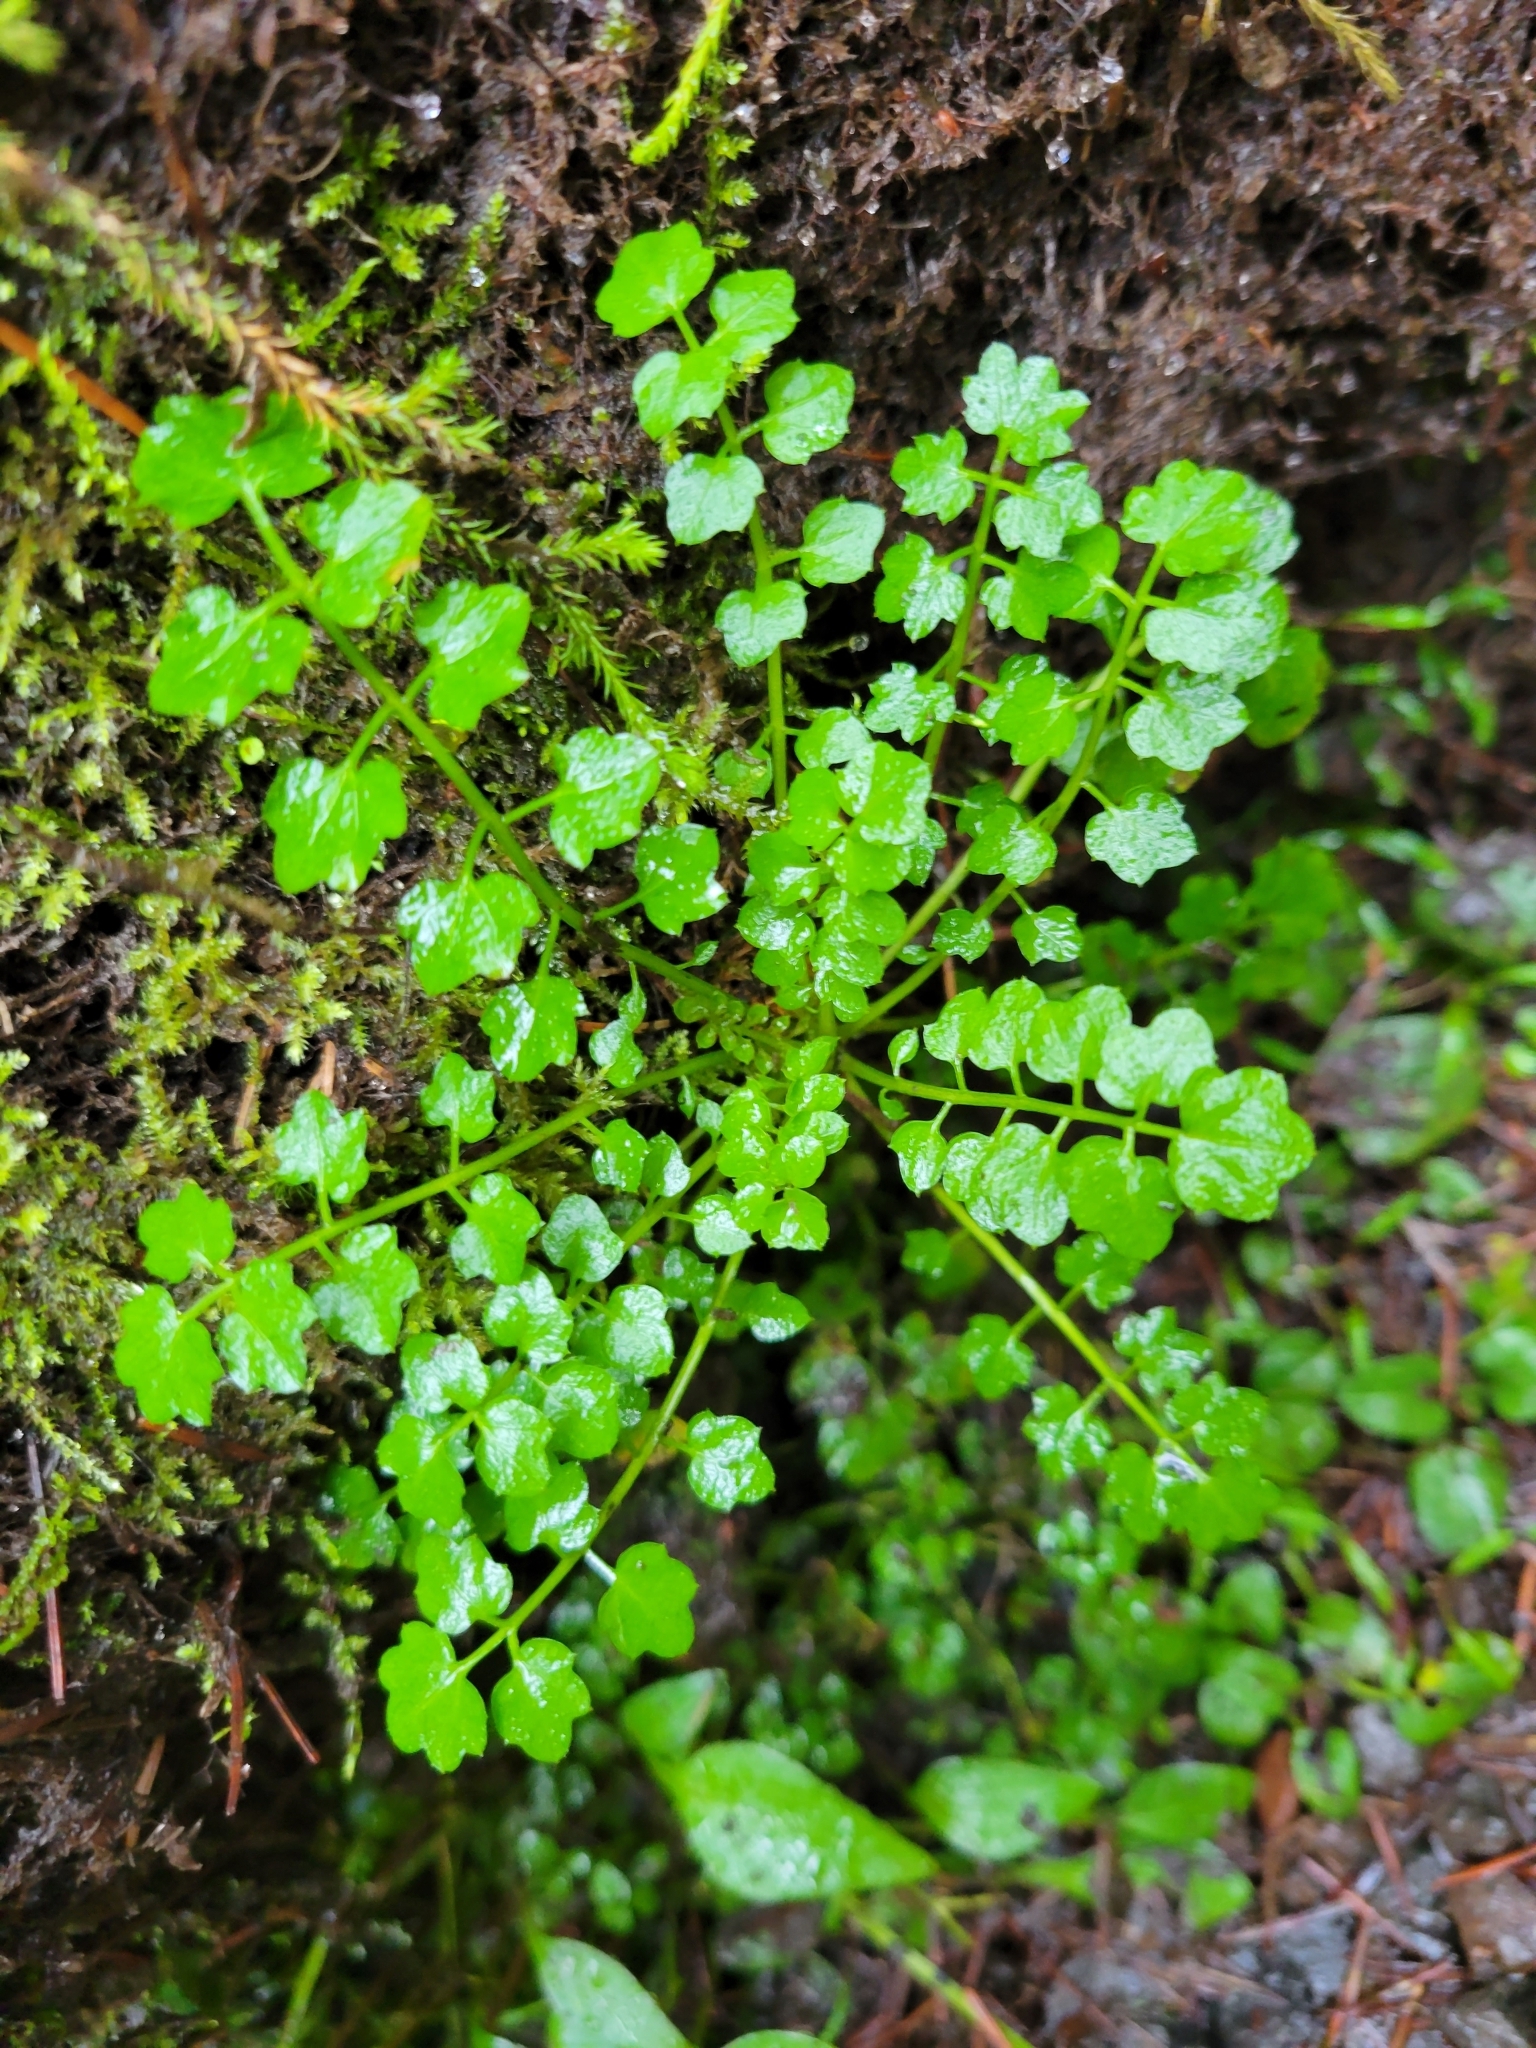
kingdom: Plantae
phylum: Tracheophyta
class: Magnoliopsida
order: Brassicales
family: Brassicaceae
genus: Cardamine
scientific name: Cardamine oligosperma
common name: Idaho bittercress
